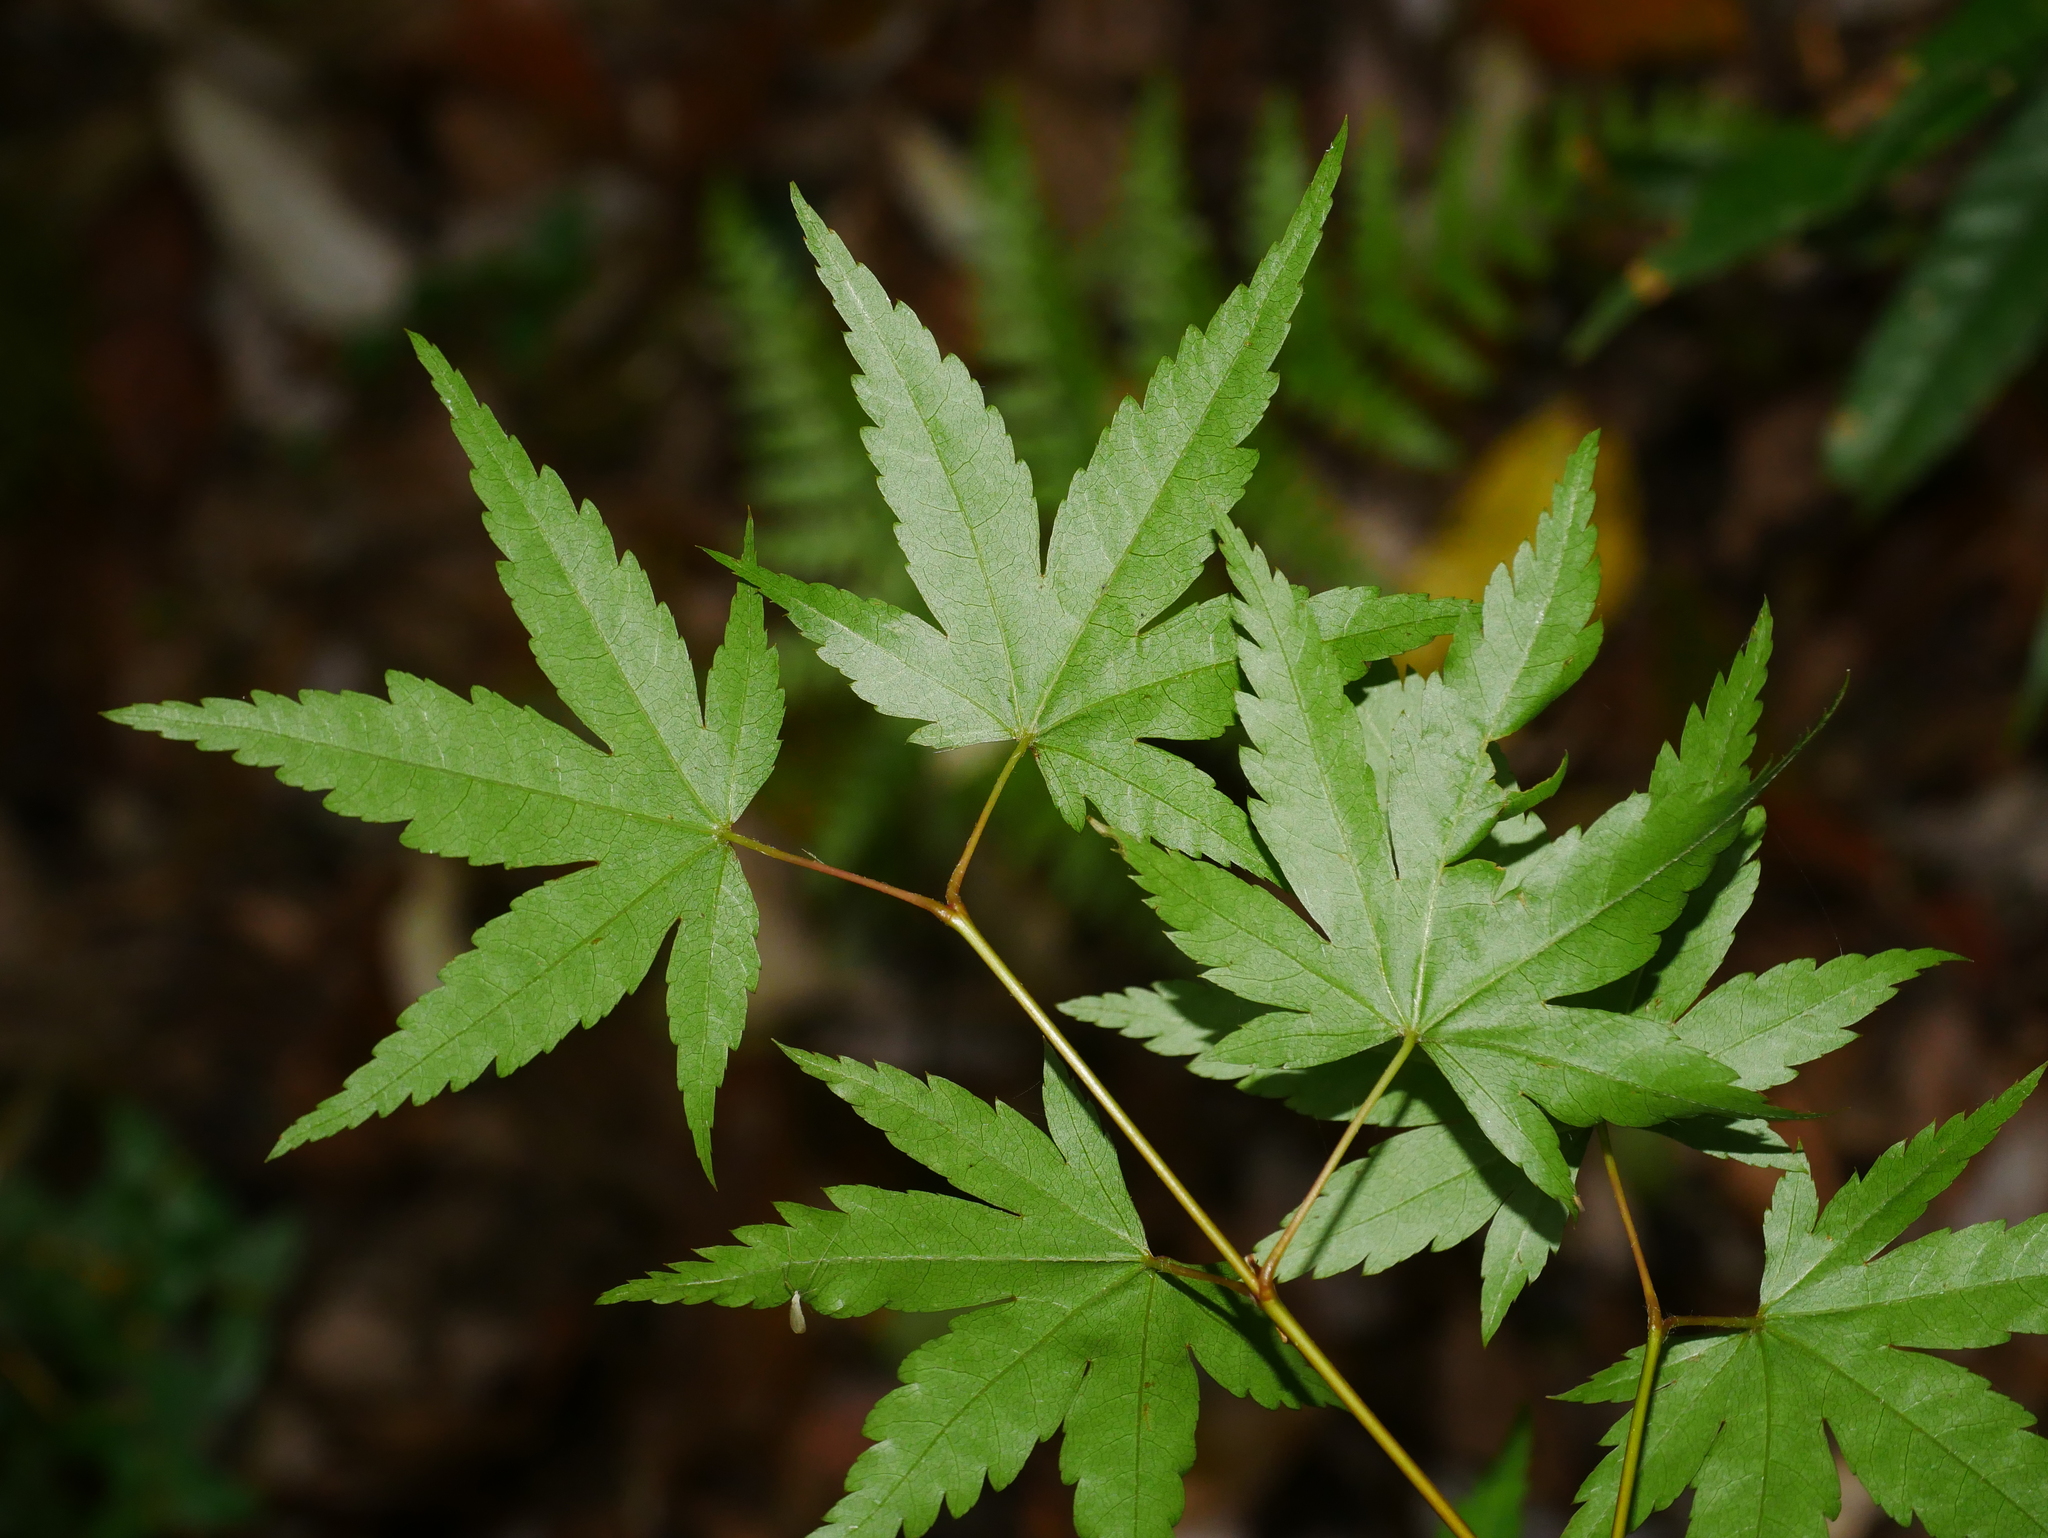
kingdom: Plantae
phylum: Tracheophyta
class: Magnoliopsida
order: Sapindales
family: Sapindaceae
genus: Acer
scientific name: Acer palmatum
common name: Japanese maple
